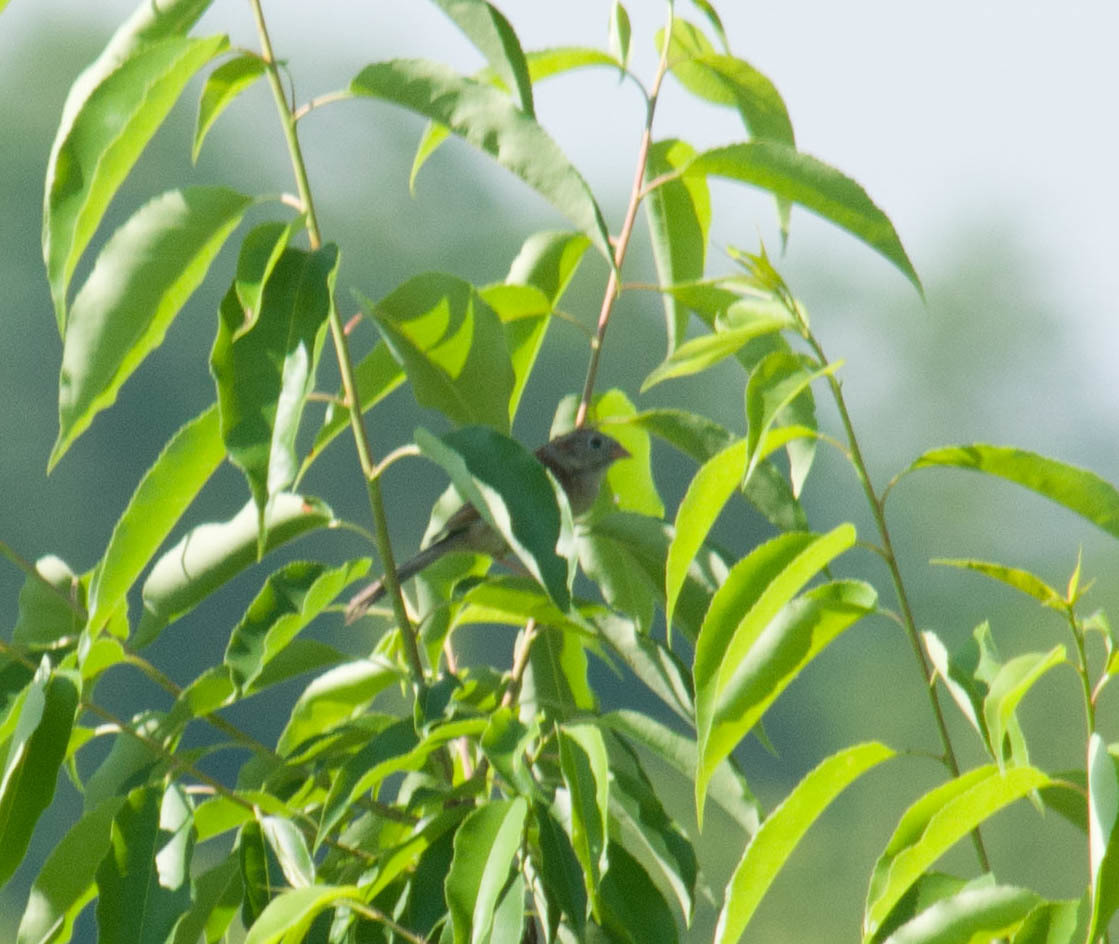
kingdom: Animalia
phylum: Chordata
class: Aves
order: Passeriformes
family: Passerellidae
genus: Spizella
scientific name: Spizella pusilla
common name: Field sparrow
